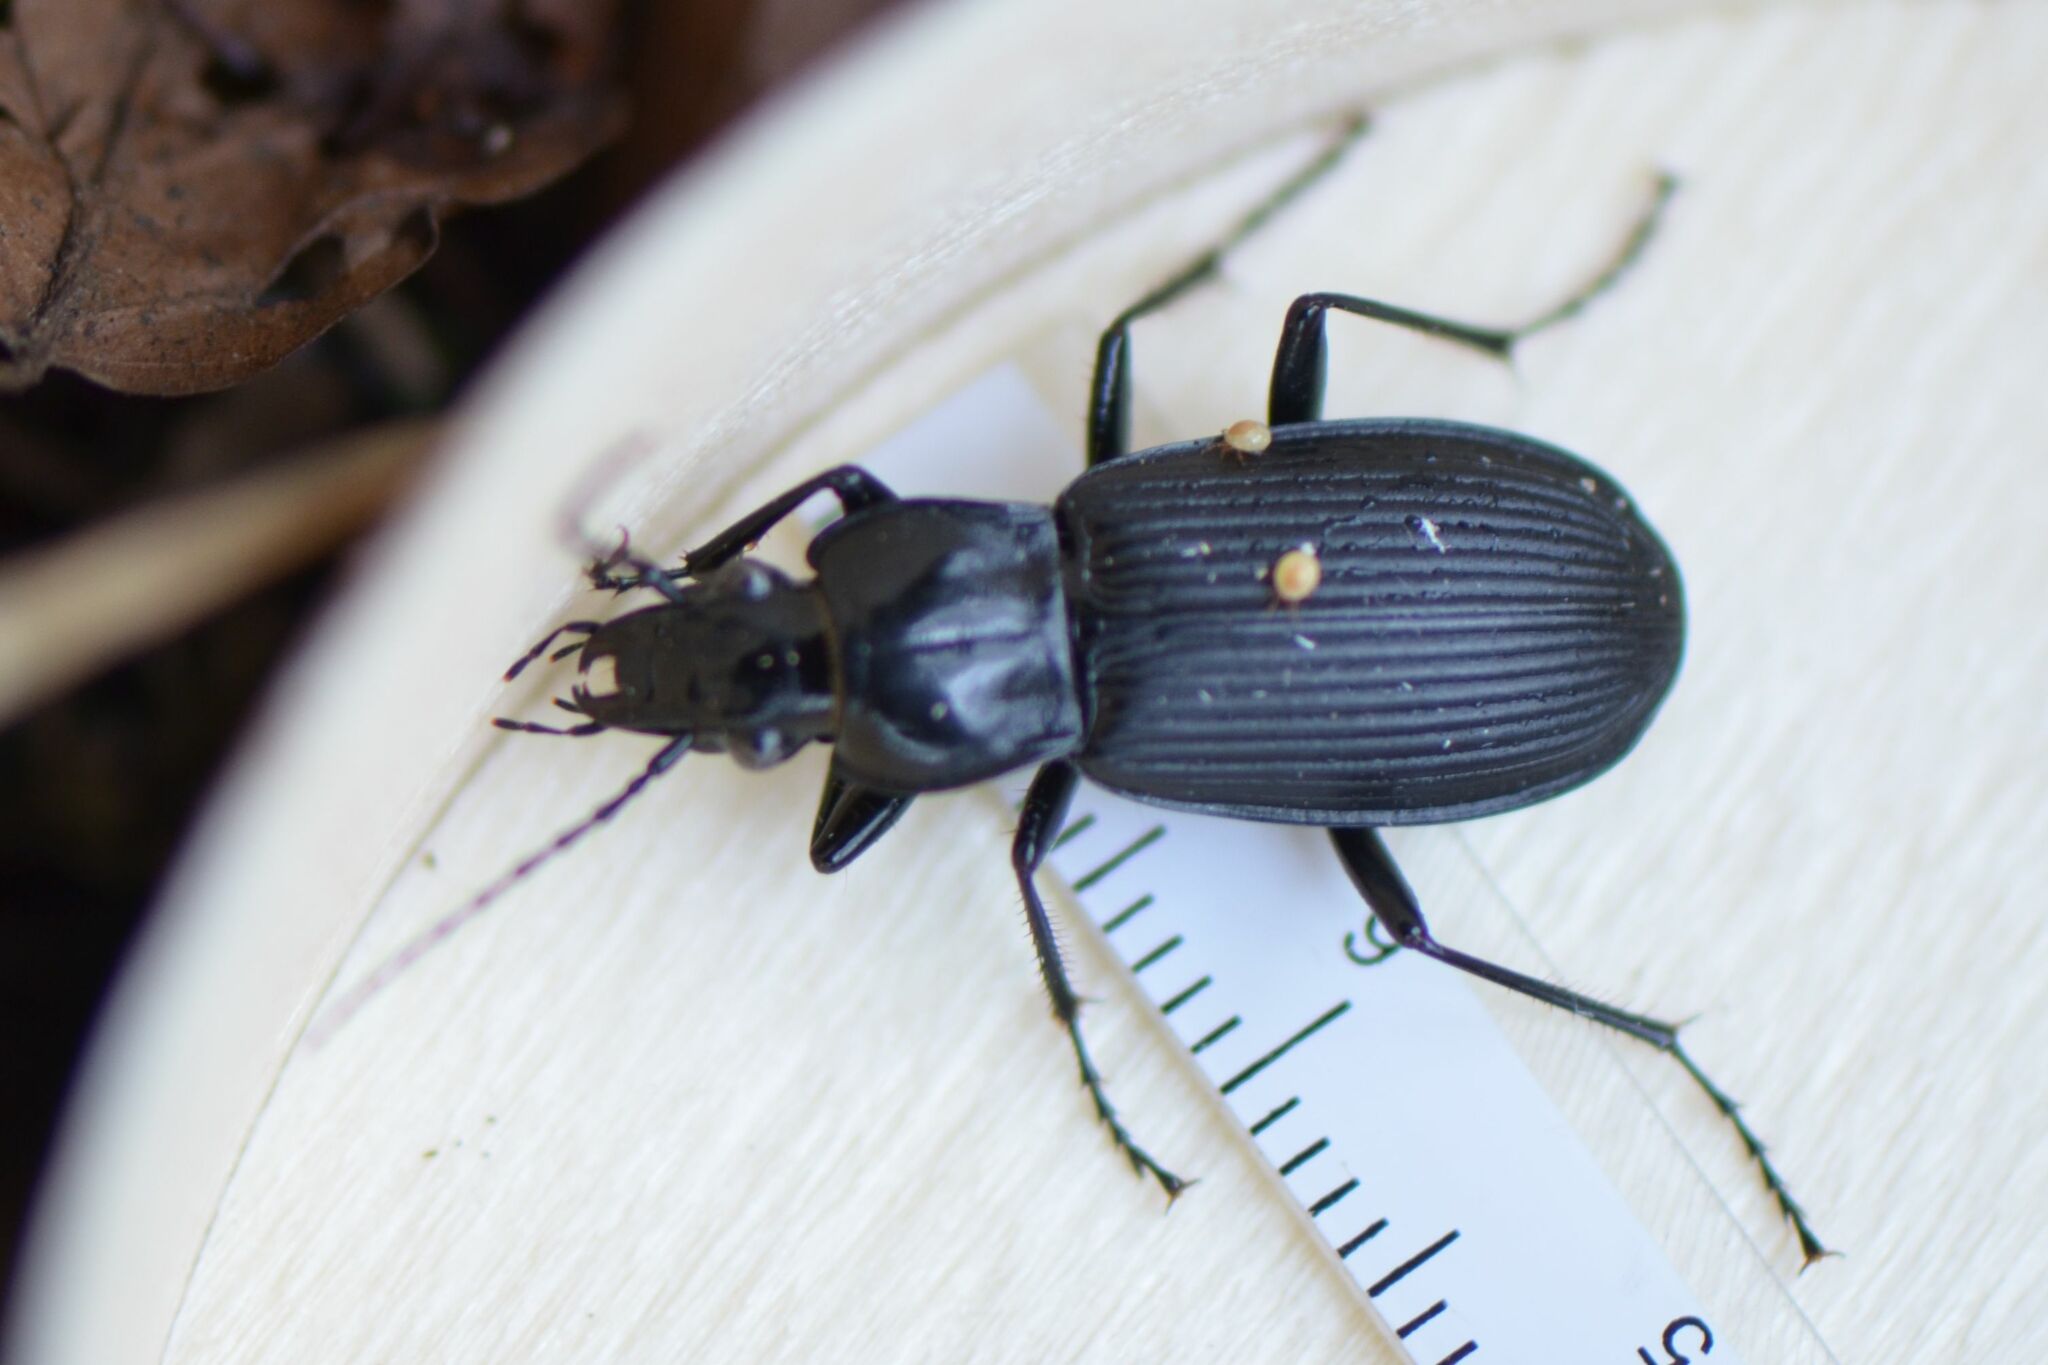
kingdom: Animalia
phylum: Arthropoda
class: Insecta
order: Coleoptera
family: Carabidae
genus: Pterostichus
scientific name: Pterostichus niger
